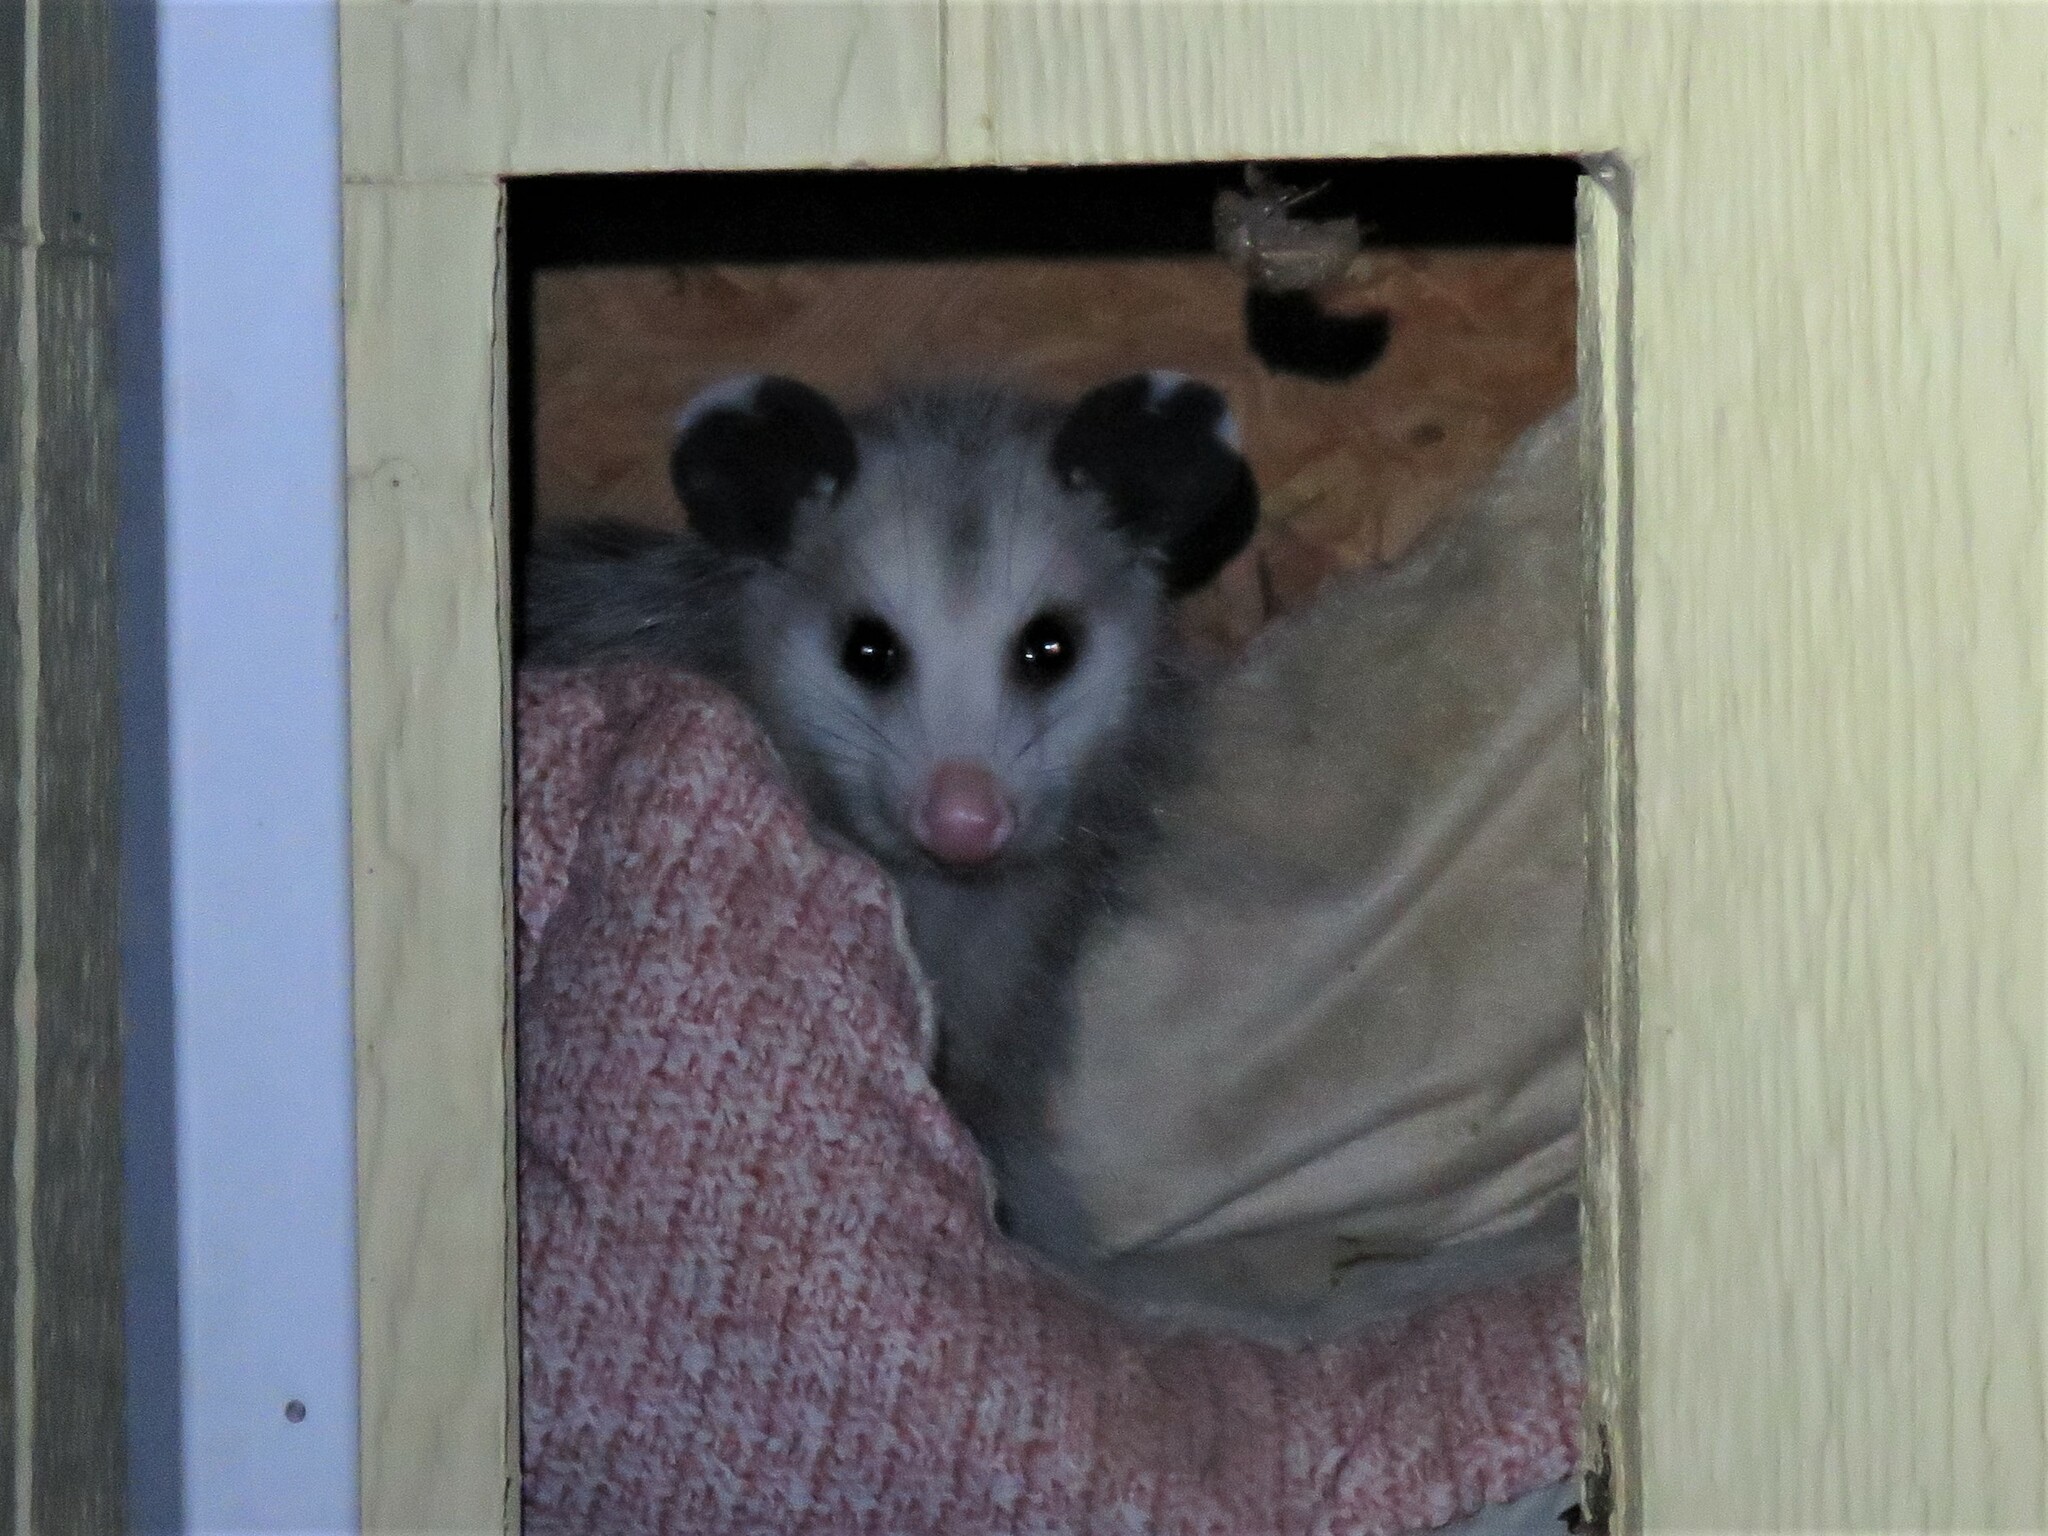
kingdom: Animalia
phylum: Chordata
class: Mammalia
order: Didelphimorphia
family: Didelphidae
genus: Didelphis
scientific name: Didelphis virginiana
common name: Virginia opossum
